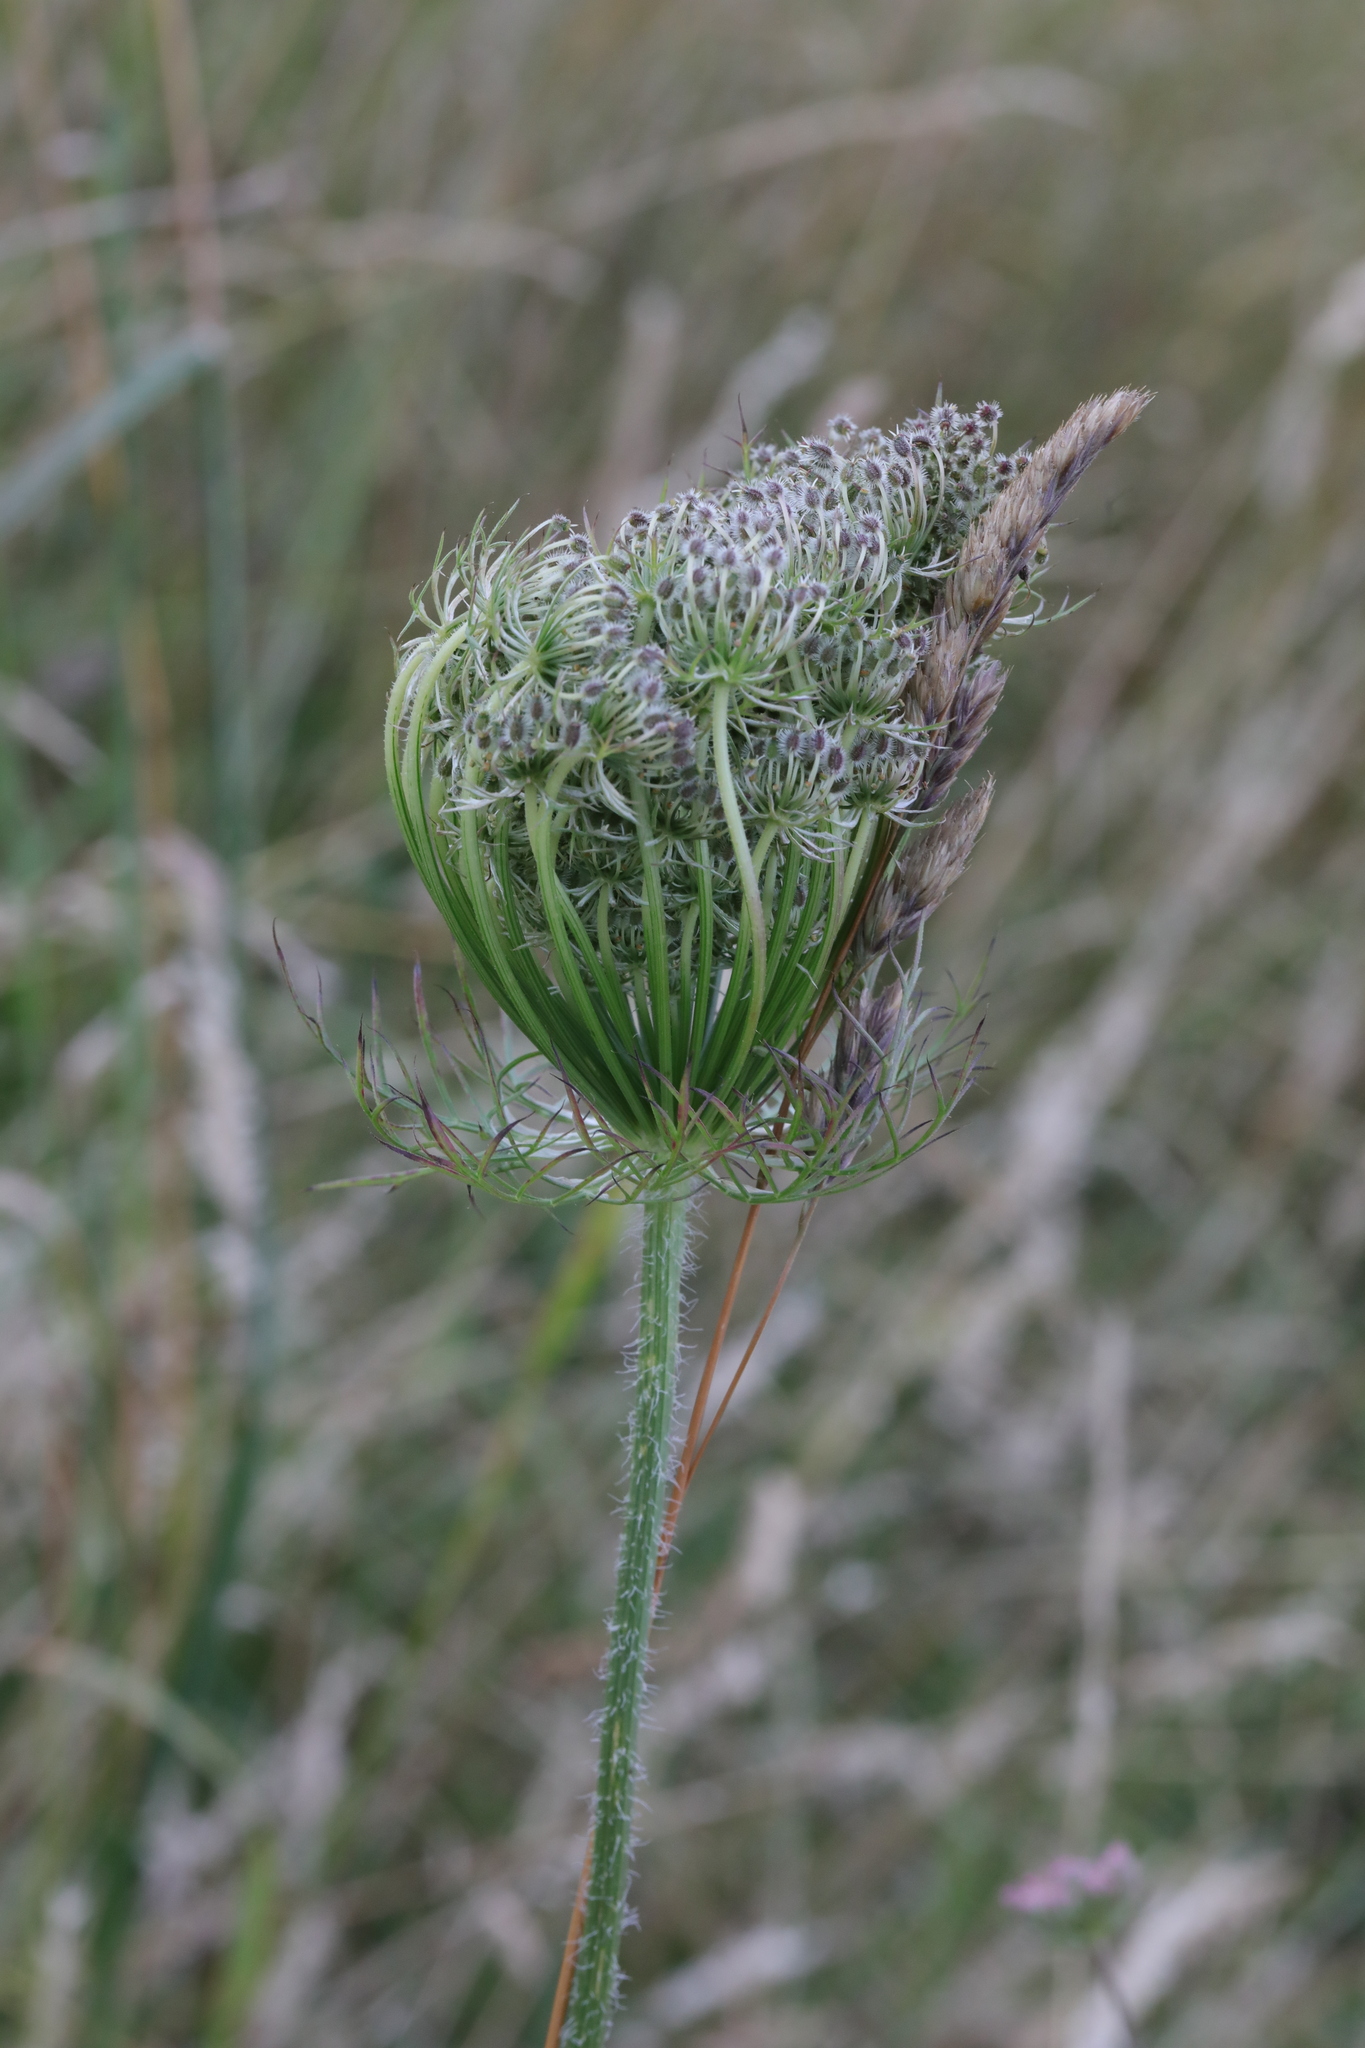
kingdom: Plantae
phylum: Tracheophyta
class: Magnoliopsida
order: Apiales
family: Apiaceae
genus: Daucus
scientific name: Daucus carota
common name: Wild carrot
